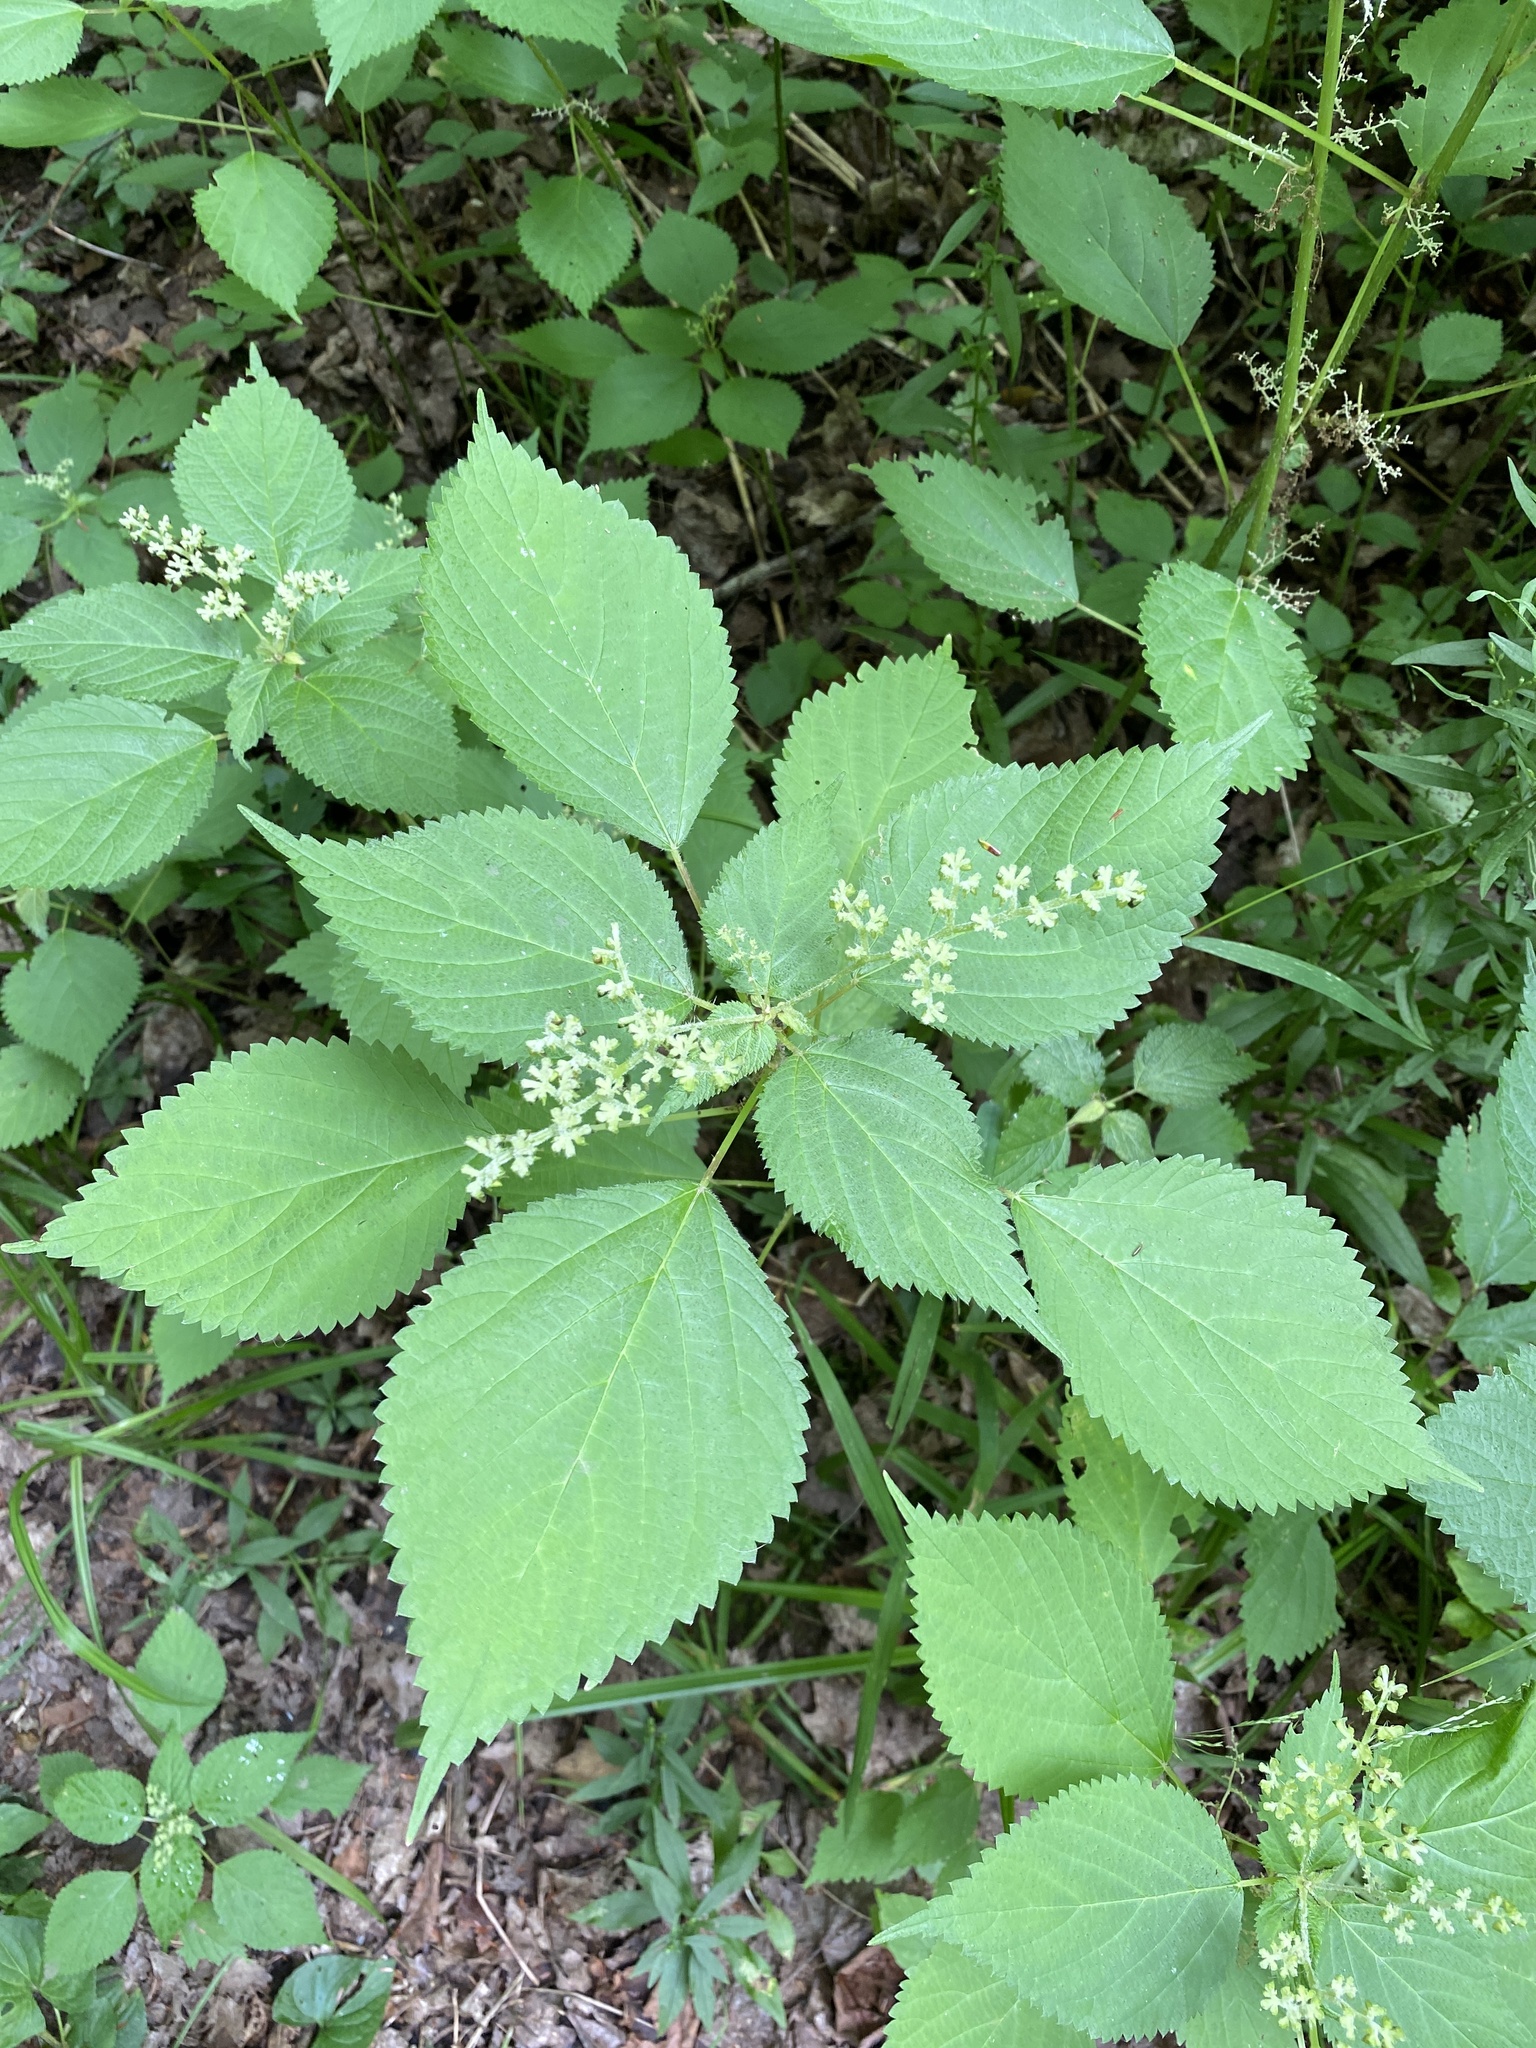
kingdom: Plantae
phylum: Tracheophyta
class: Magnoliopsida
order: Rosales
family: Urticaceae
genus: Laportea
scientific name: Laportea canadensis
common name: Canada nettle
